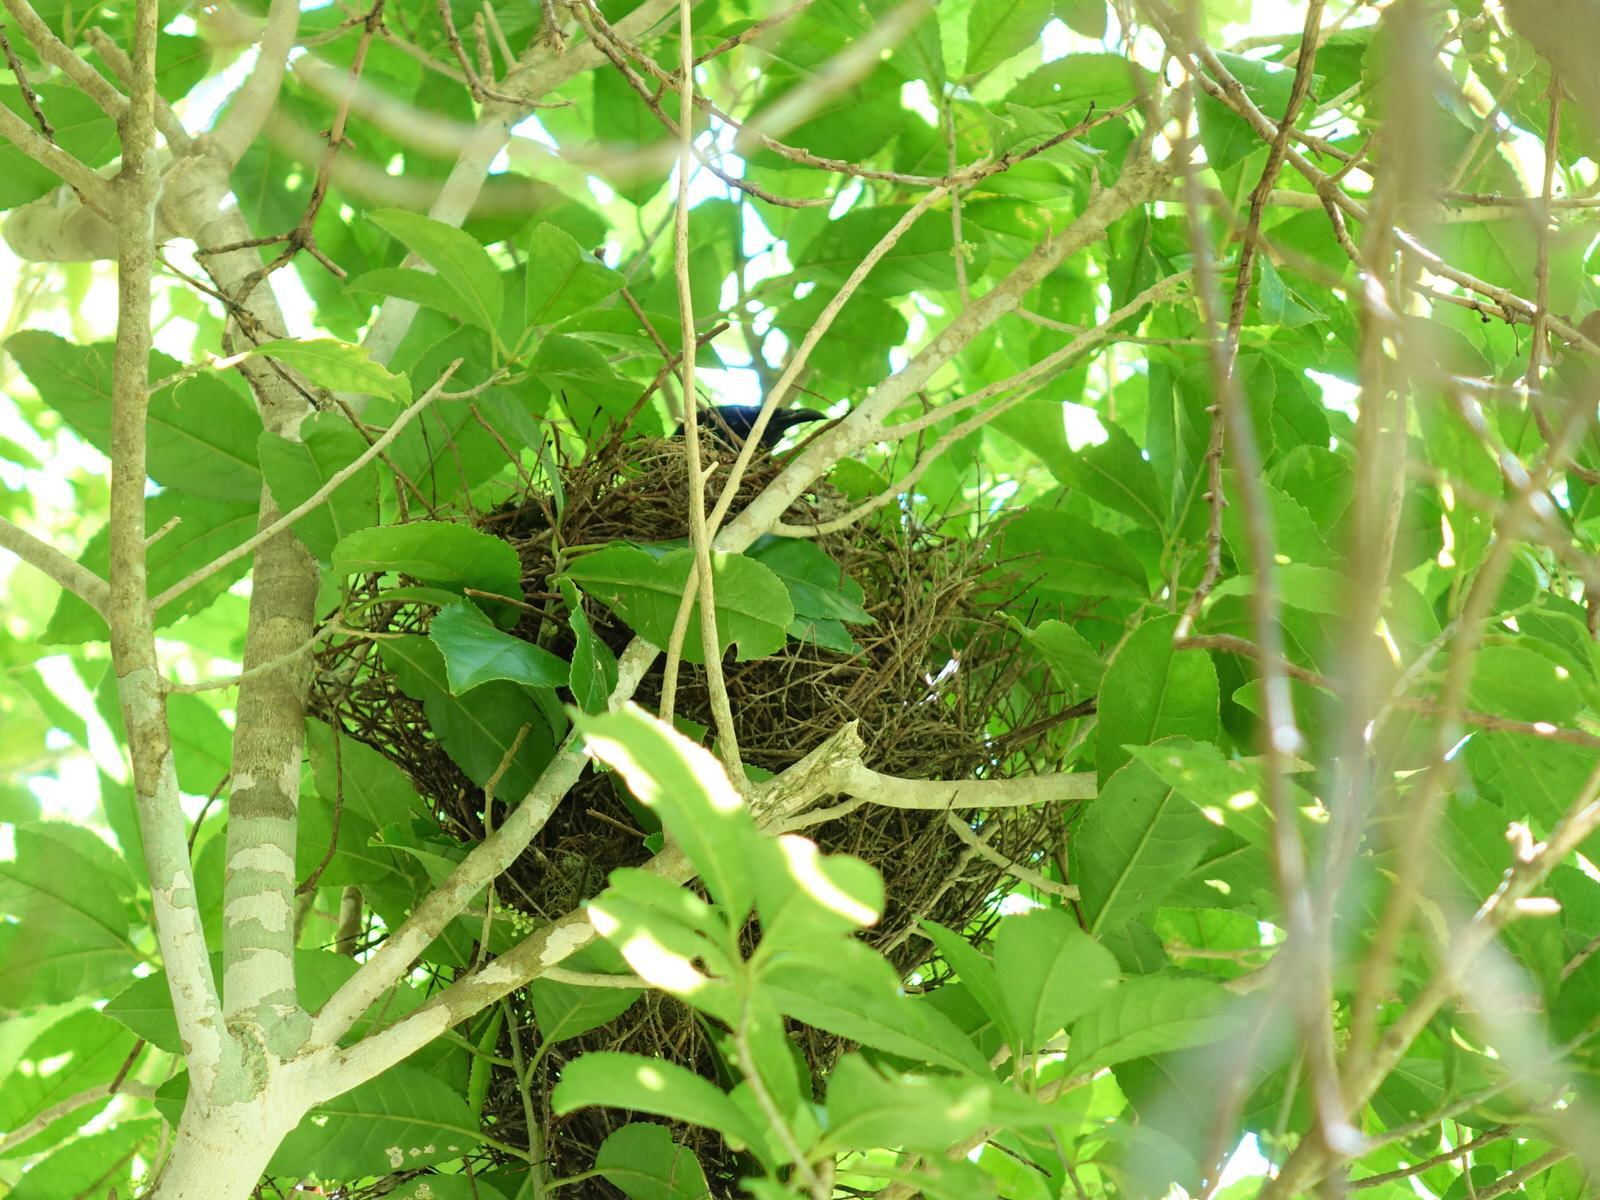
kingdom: Animalia
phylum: Chordata
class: Aves
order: Passeriformes
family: Meliphagidae
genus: Prosthemadera
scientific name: Prosthemadera novaeseelandiae
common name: Tui
